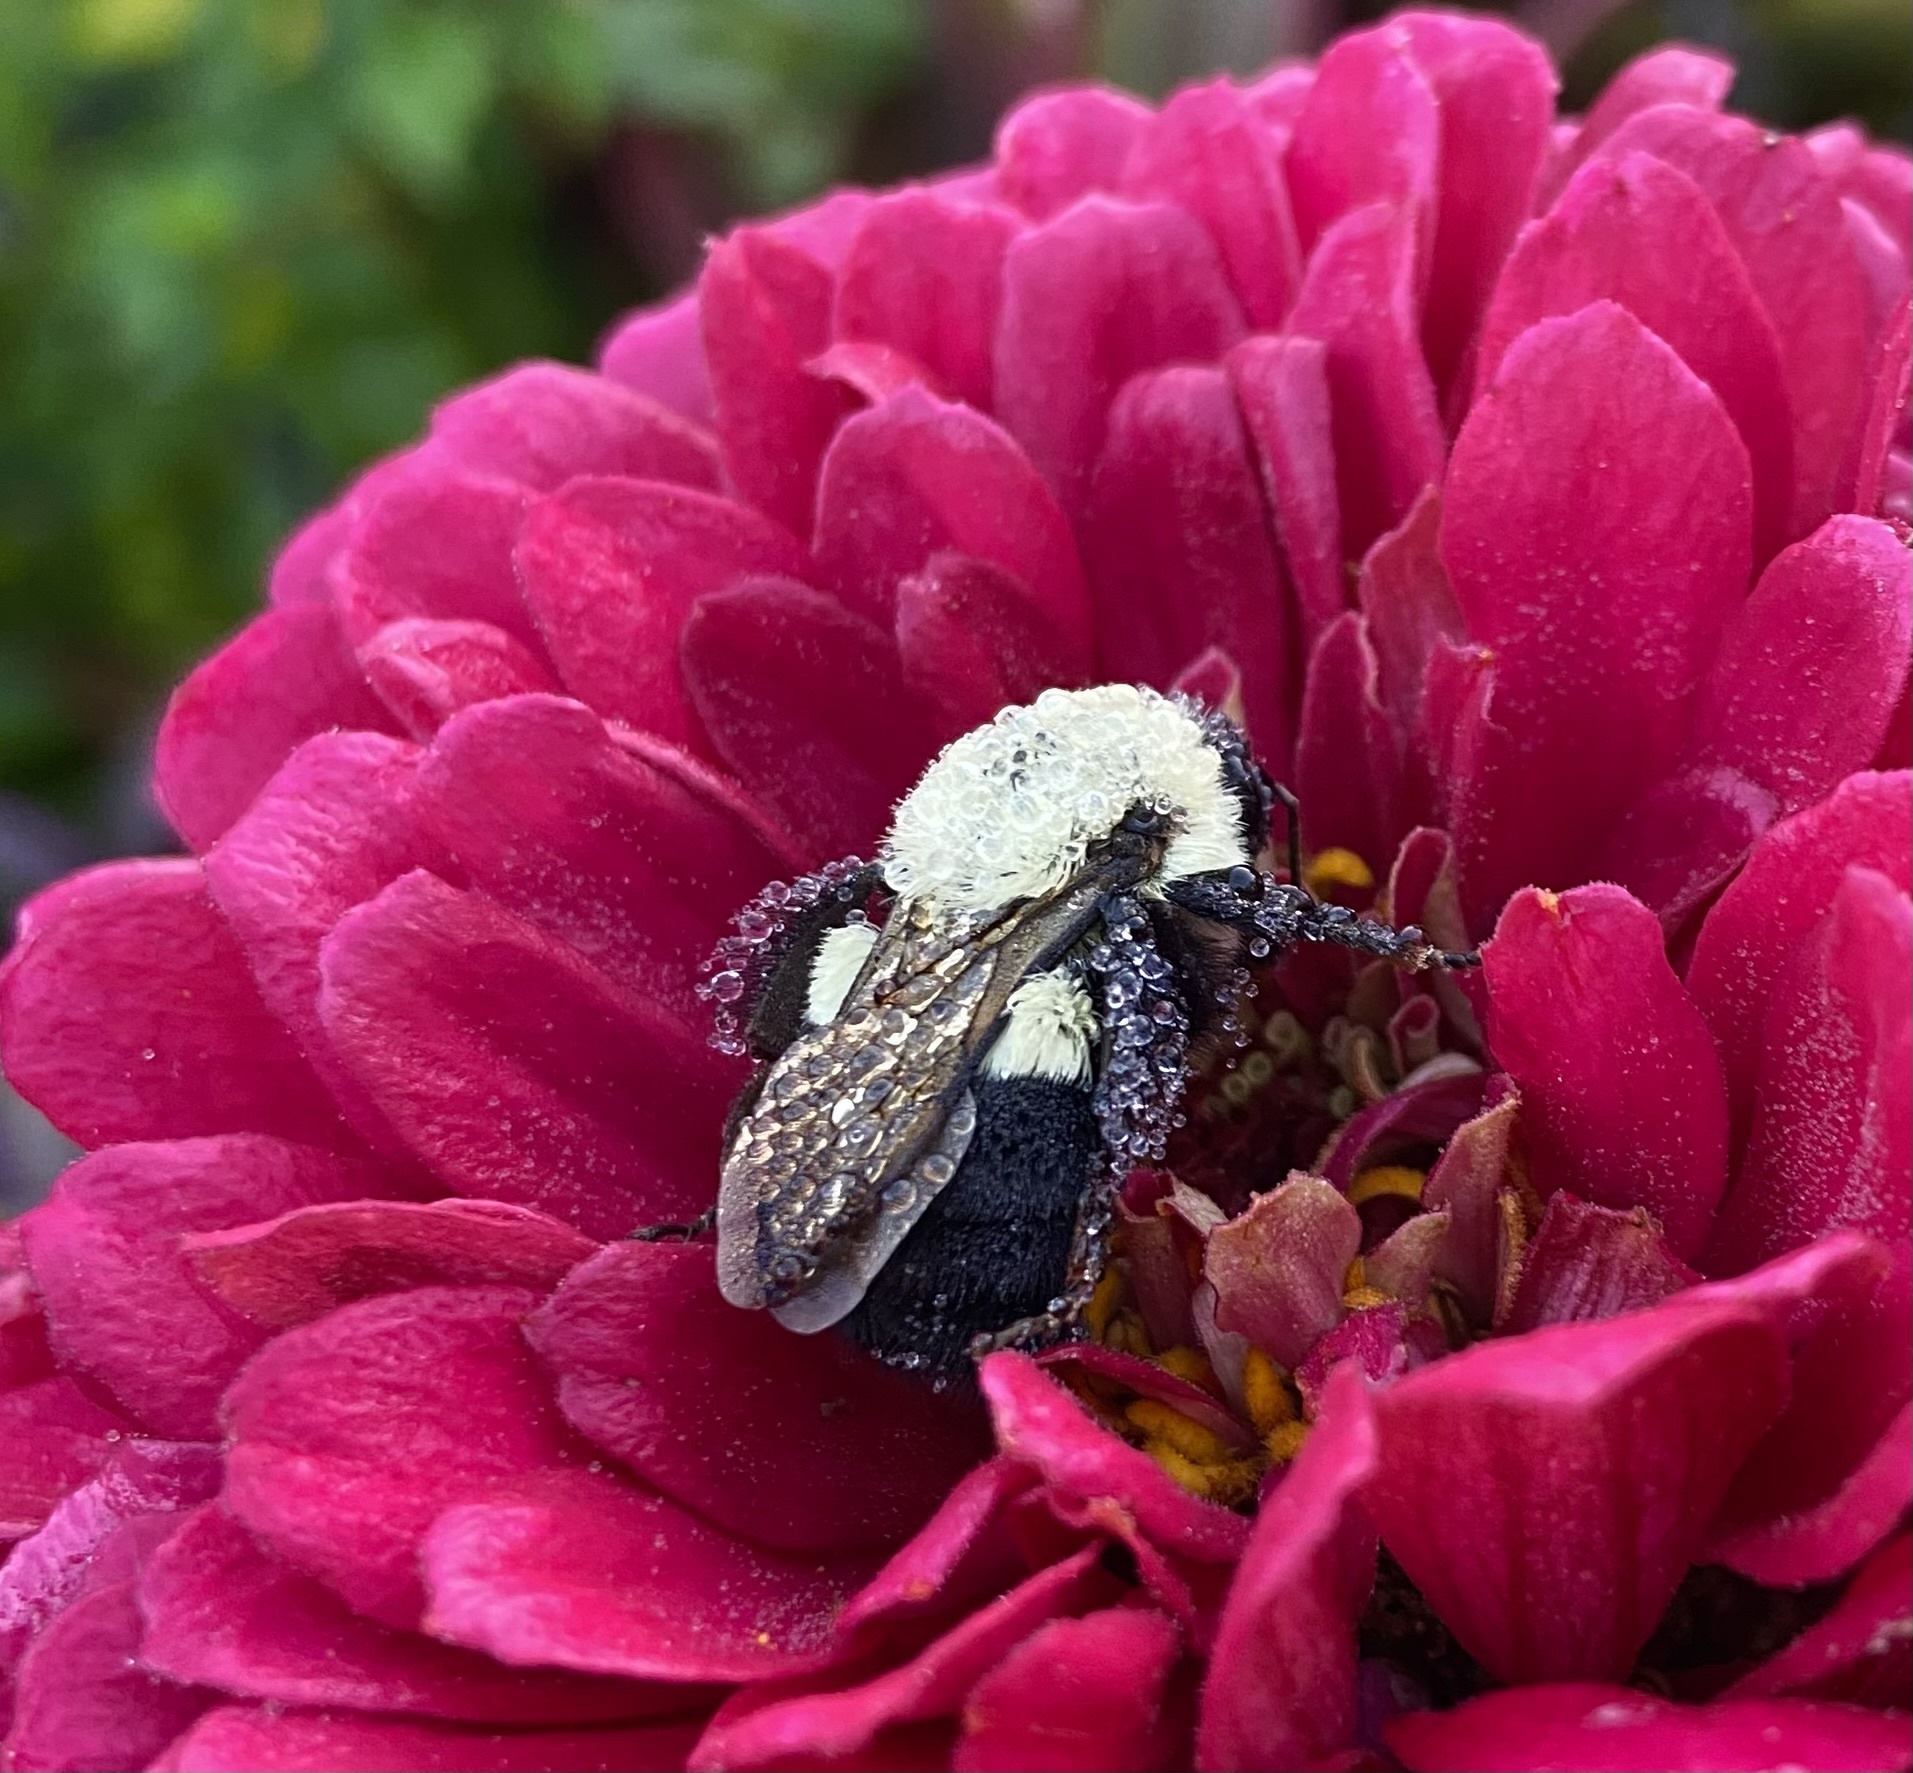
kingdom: Animalia
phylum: Arthropoda
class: Insecta
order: Hymenoptera
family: Apidae
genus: Bombus
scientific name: Bombus impatiens
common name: Common eastern bumble bee
